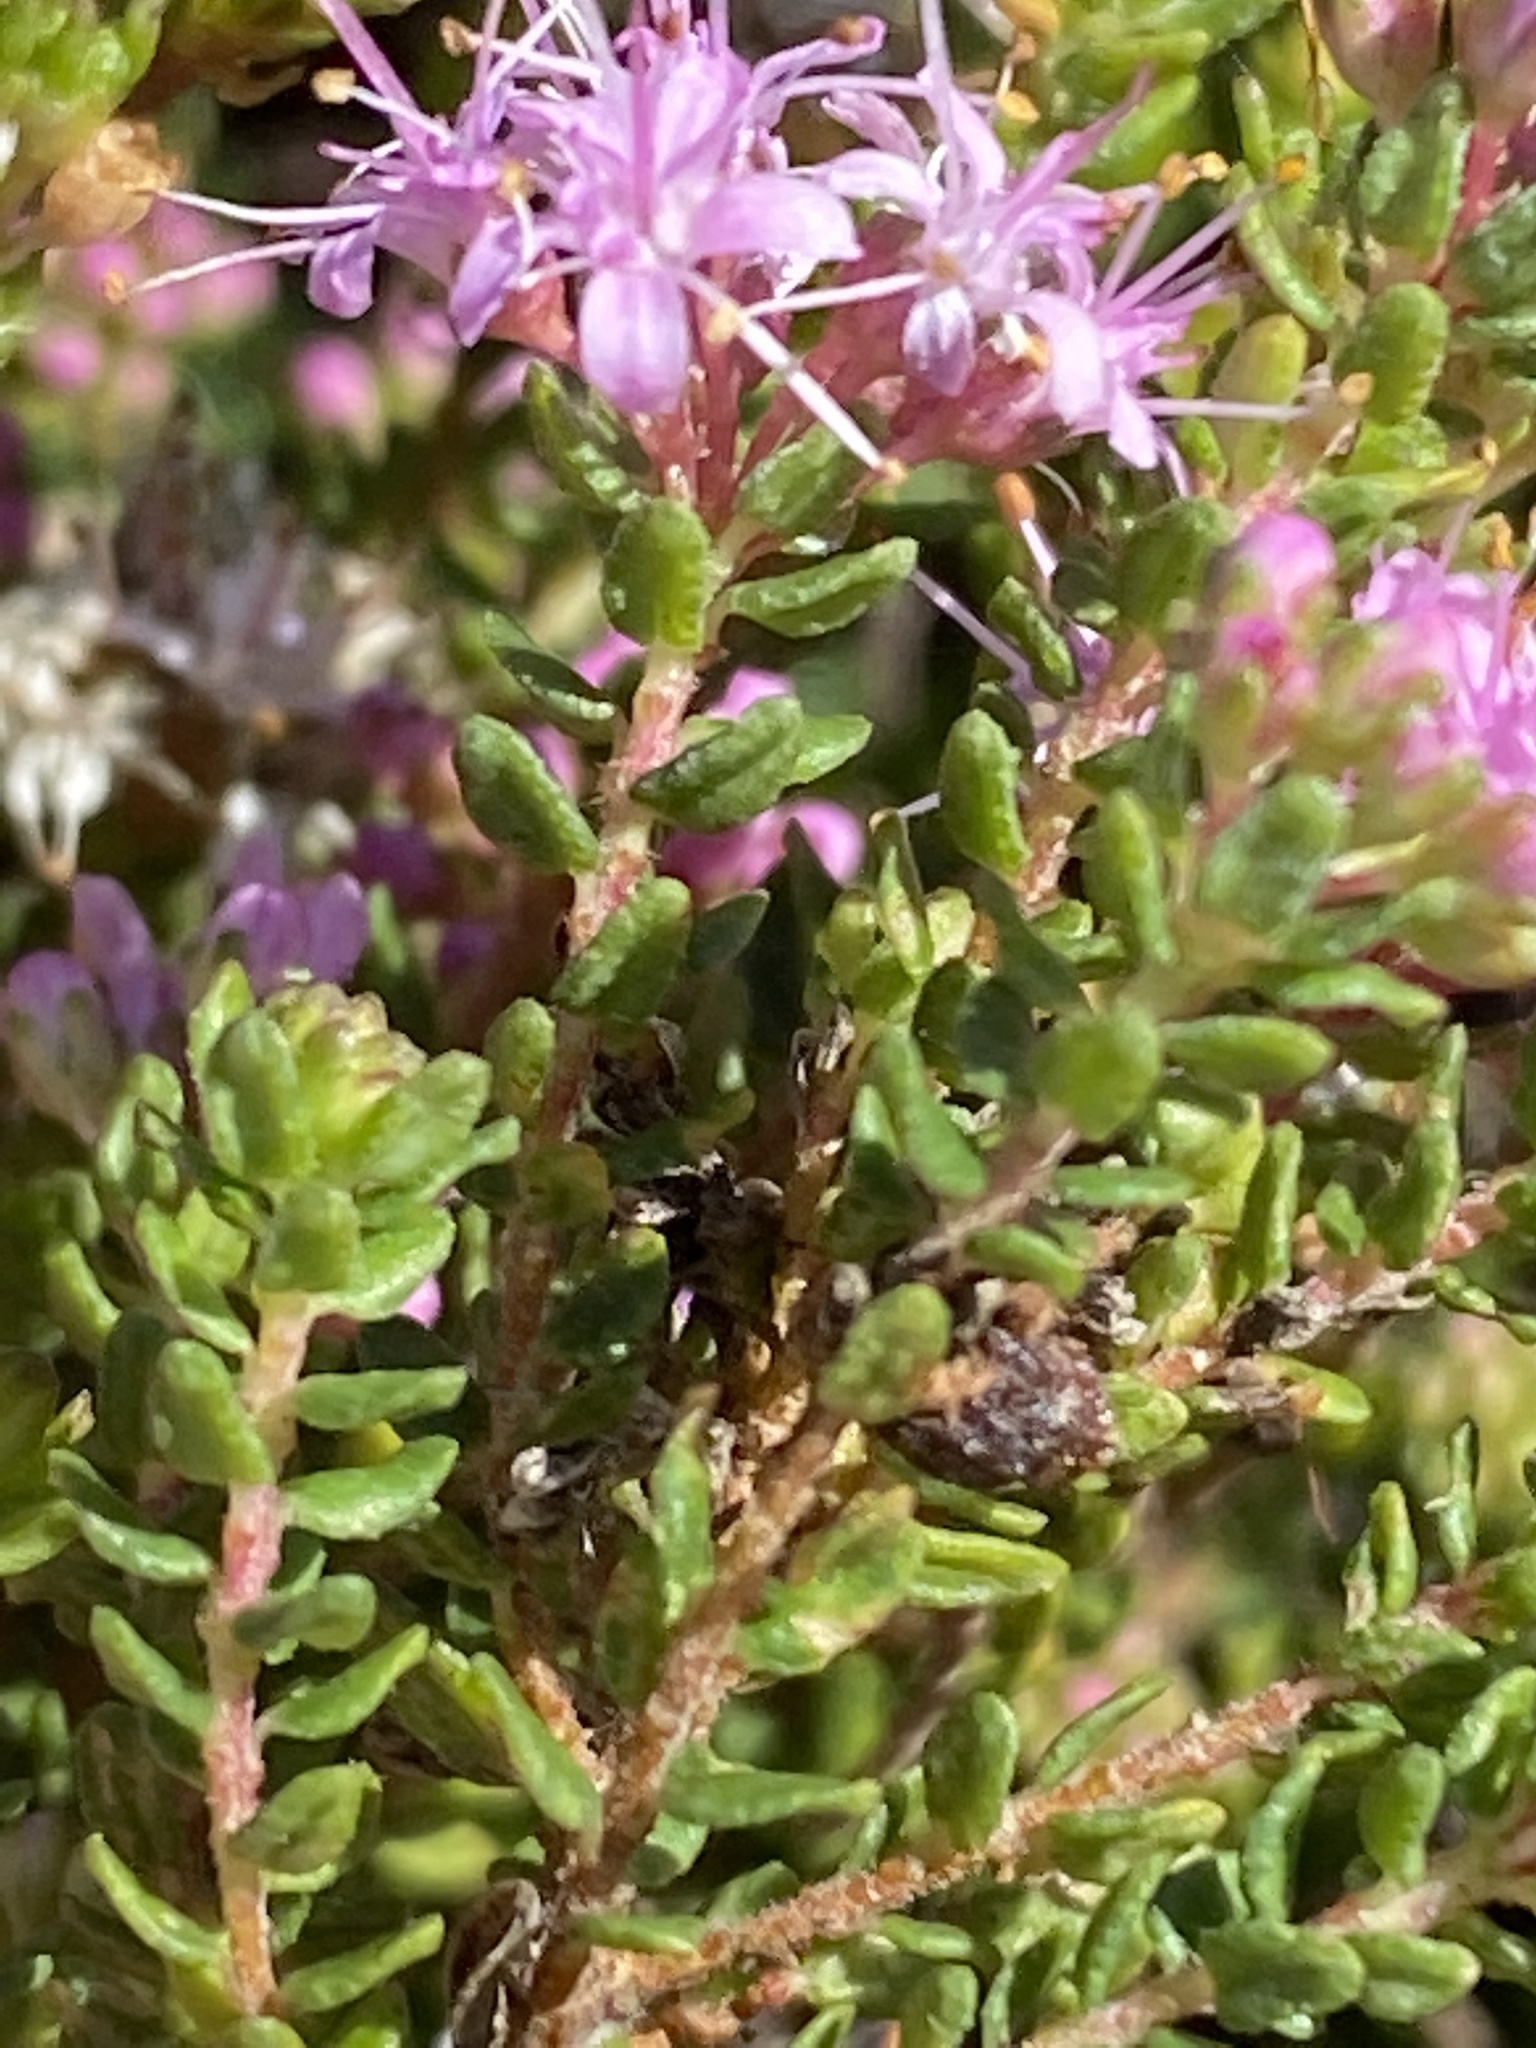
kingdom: Plantae
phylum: Tracheophyta
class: Magnoliopsida
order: Sapindales
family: Rutaceae
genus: Agathosma
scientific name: Agathosma capensis
